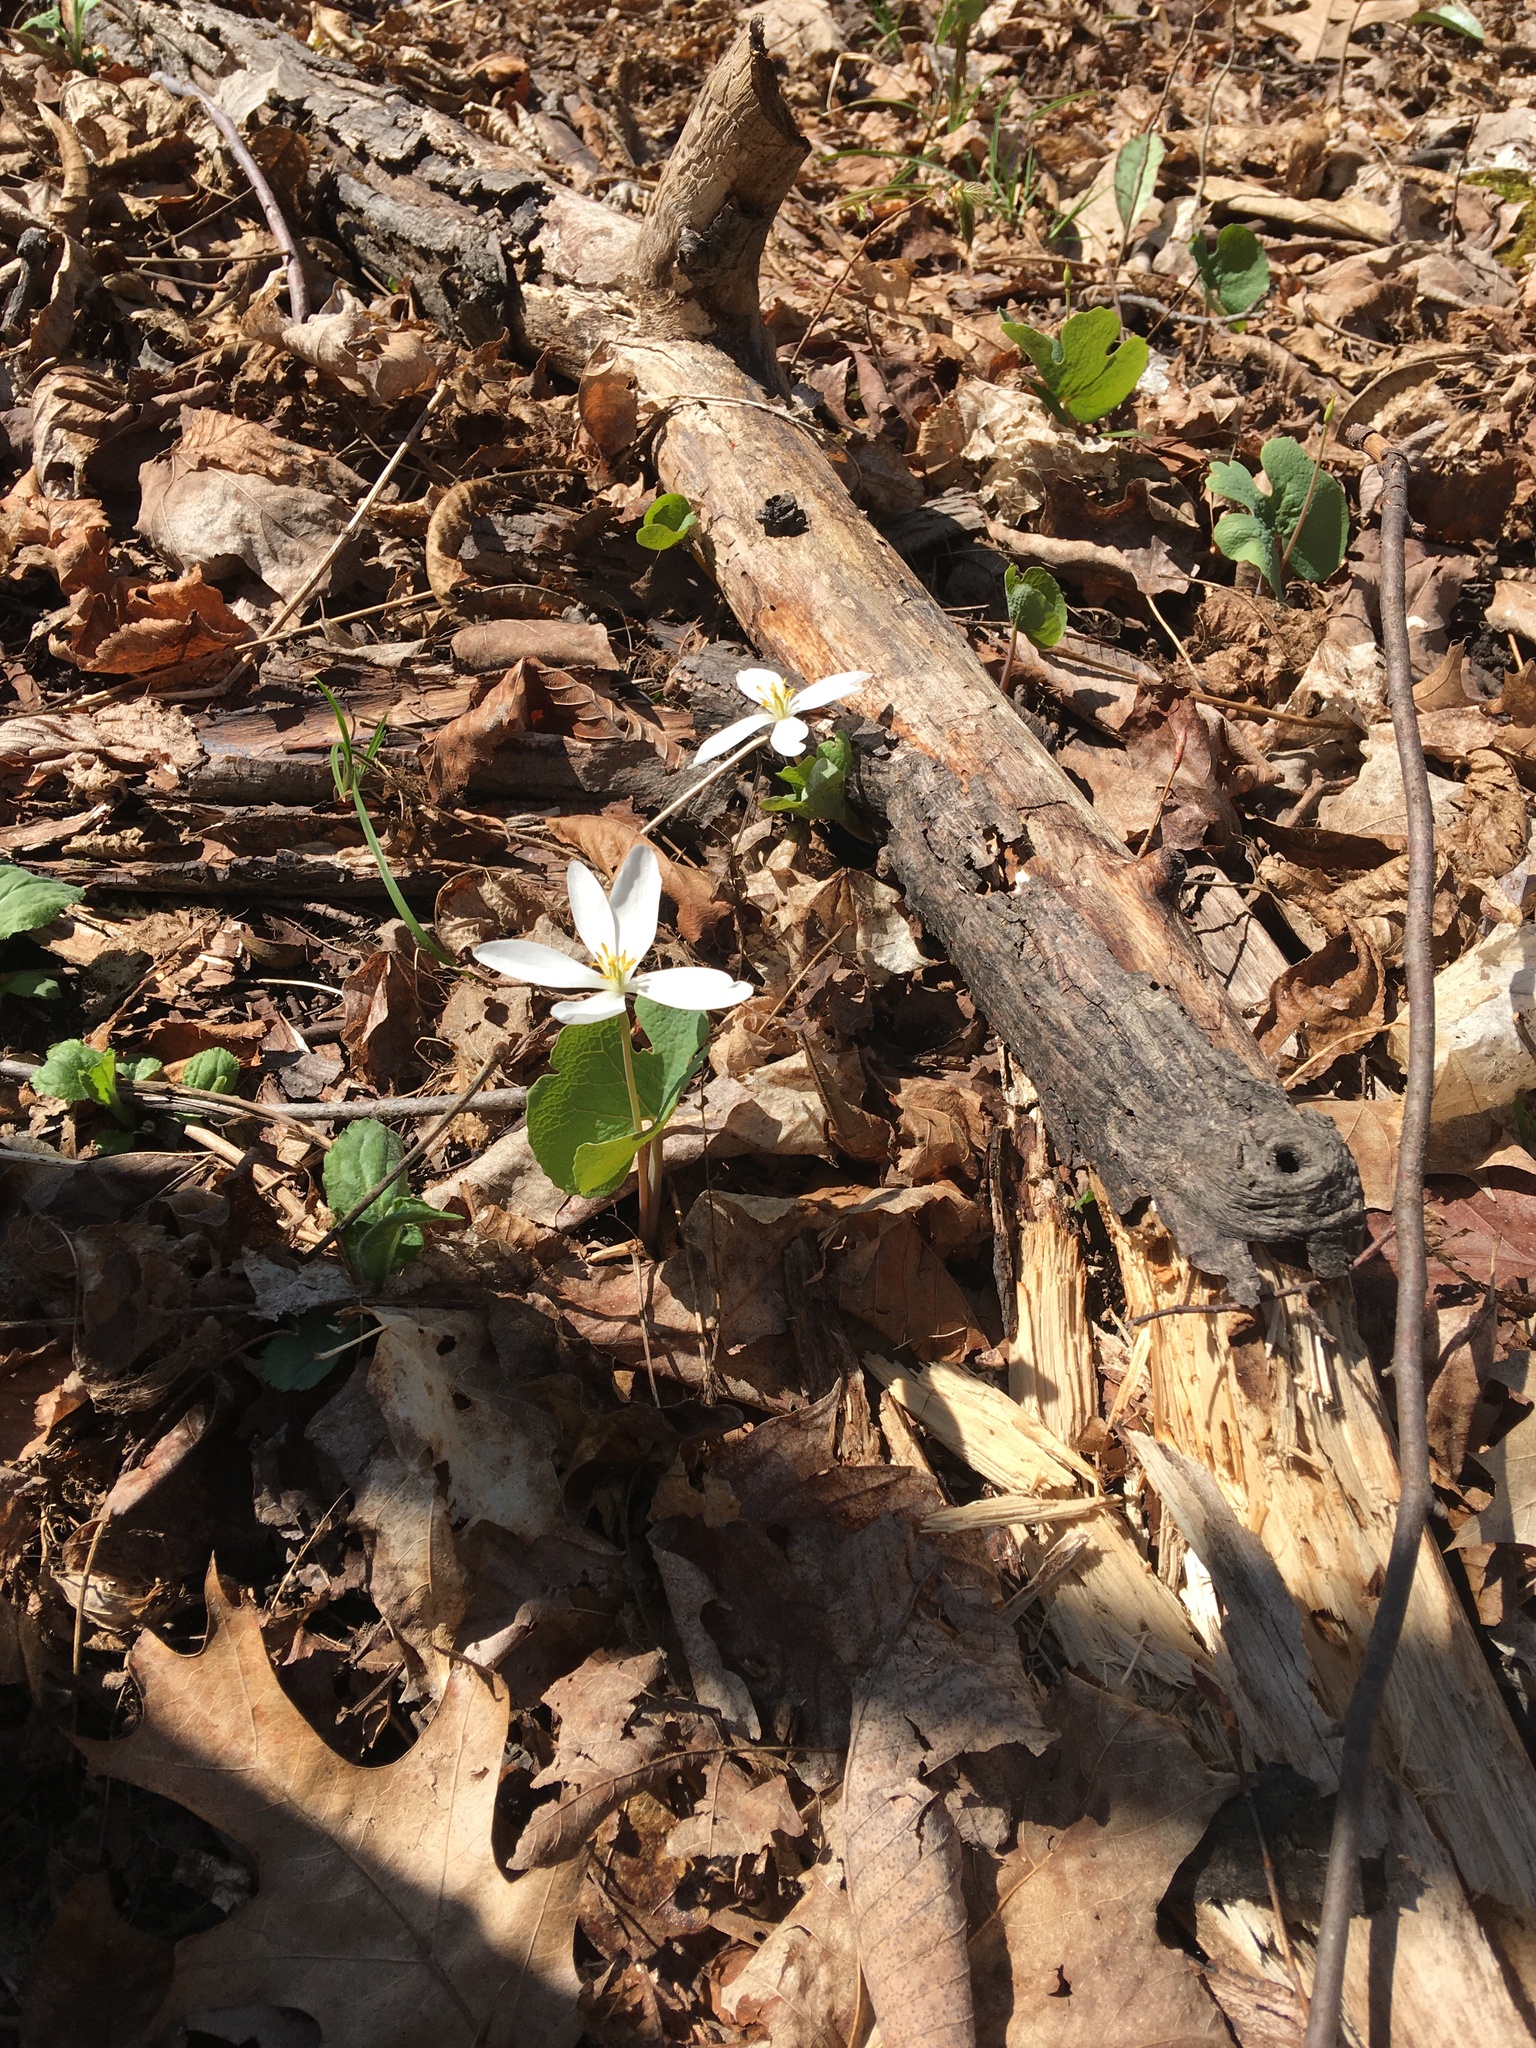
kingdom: Plantae
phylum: Tracheophyta
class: Magnoliopsida
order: Ranunculales
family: Papaveraceae
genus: Sanguinaria
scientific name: Sanguinaria canadensis
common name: Bloodroot
